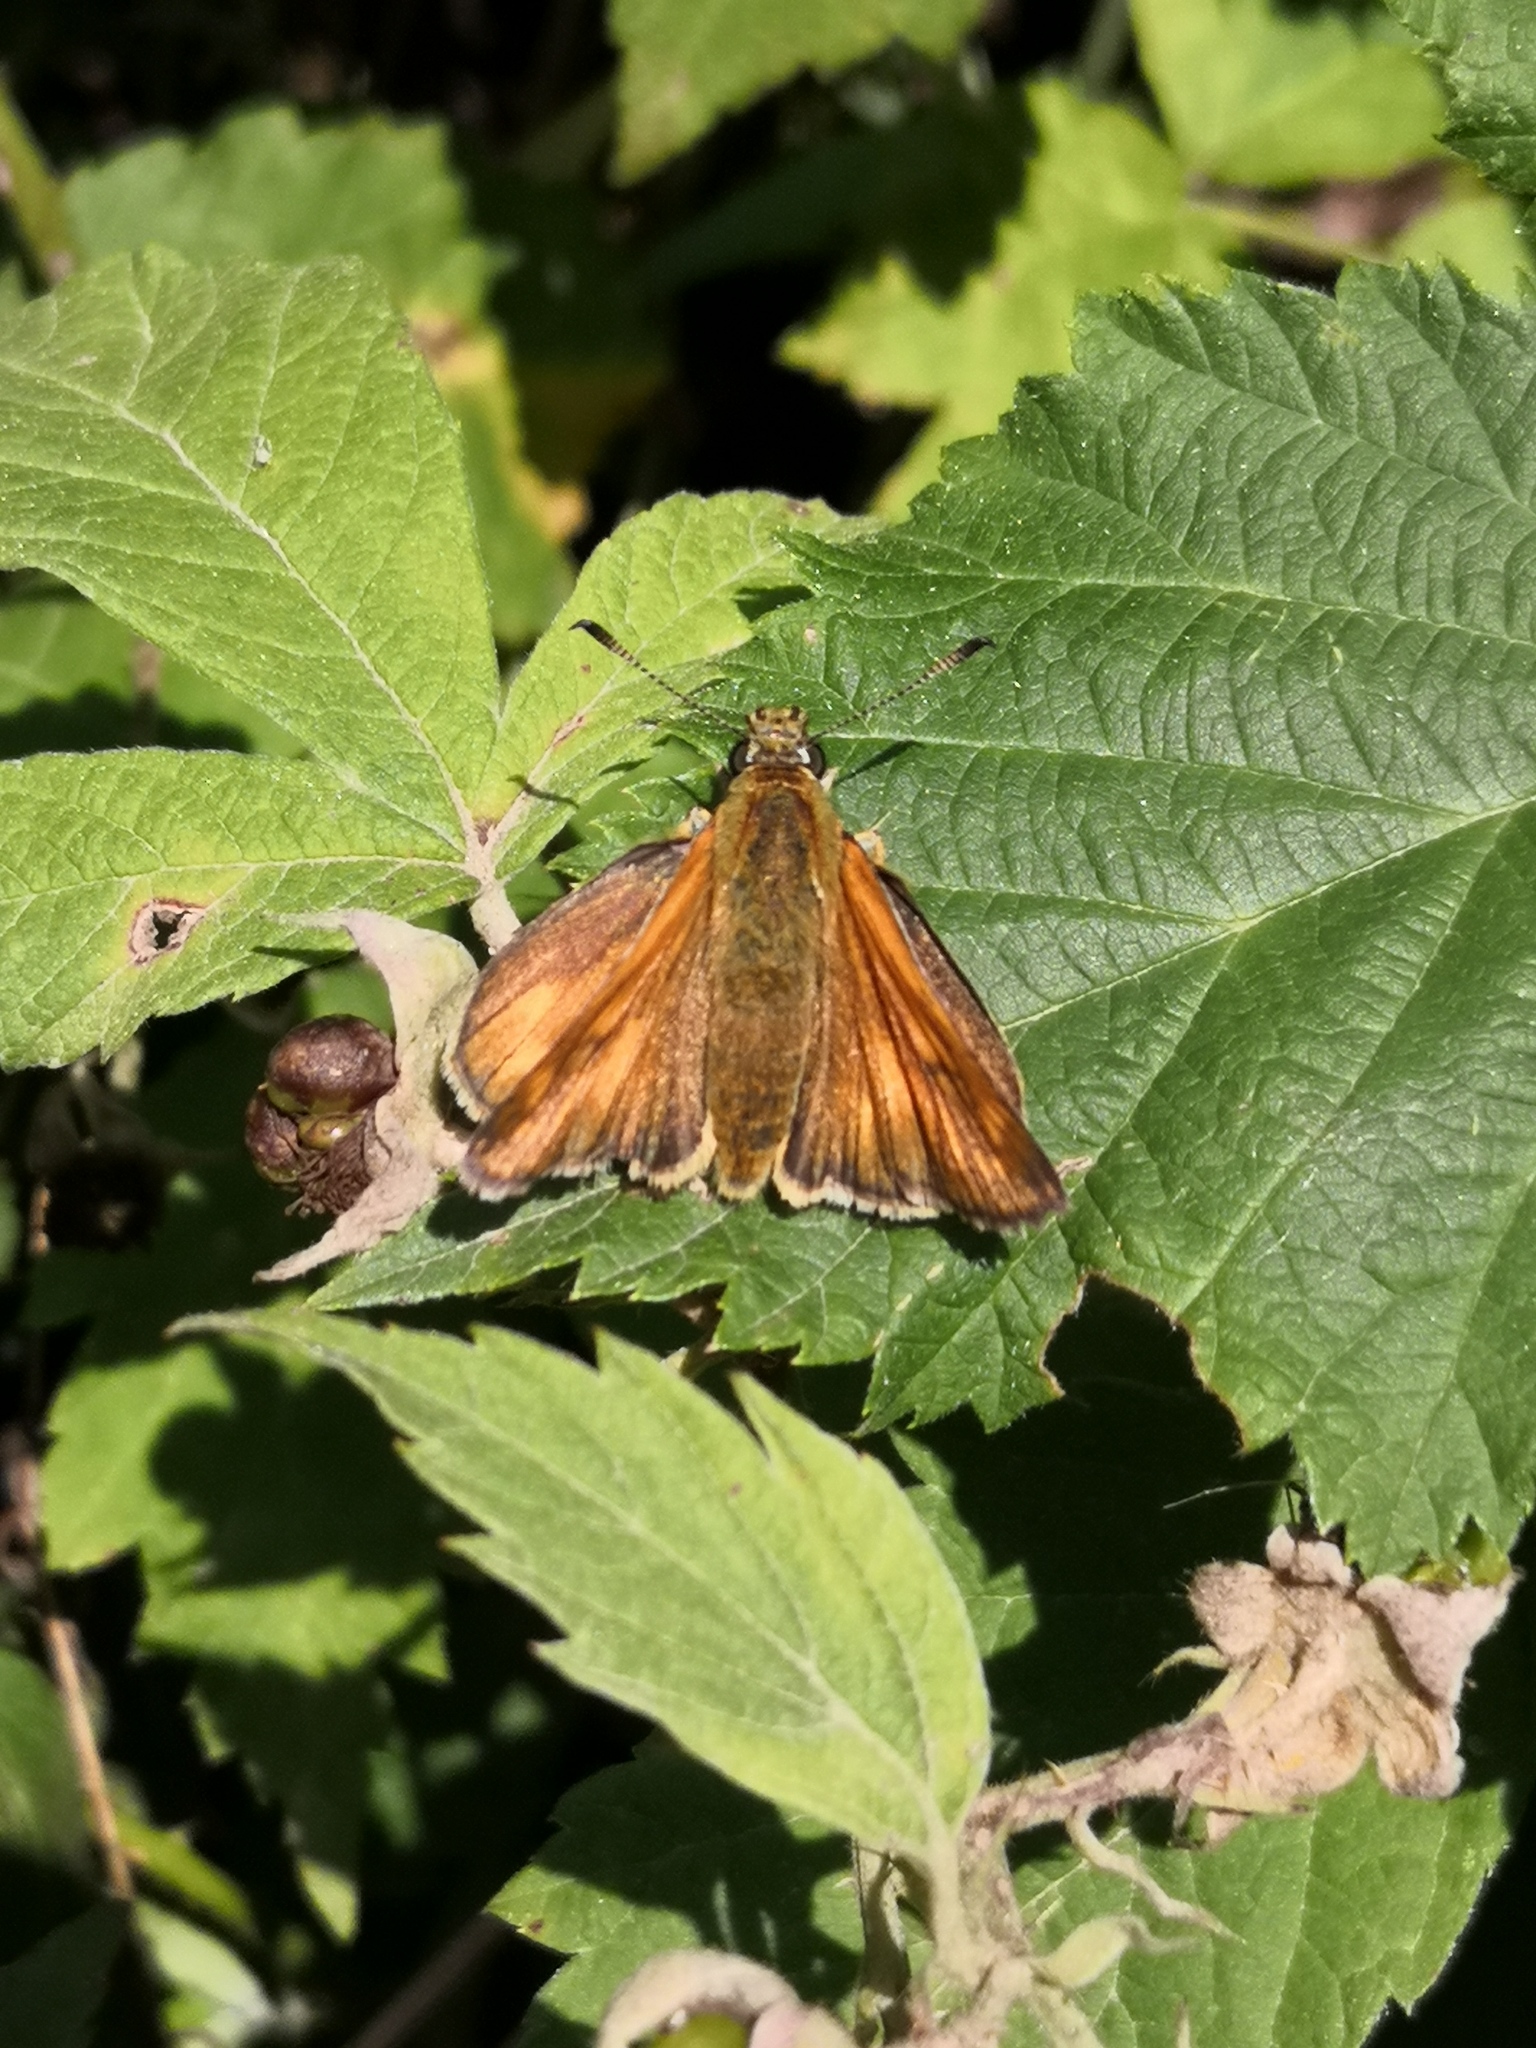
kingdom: Animalia
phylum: Arthropoda
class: Insecta
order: Lepidoptera
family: Hesperiidae
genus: Ochlodes
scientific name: Ochlodes venata
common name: Large skipper
